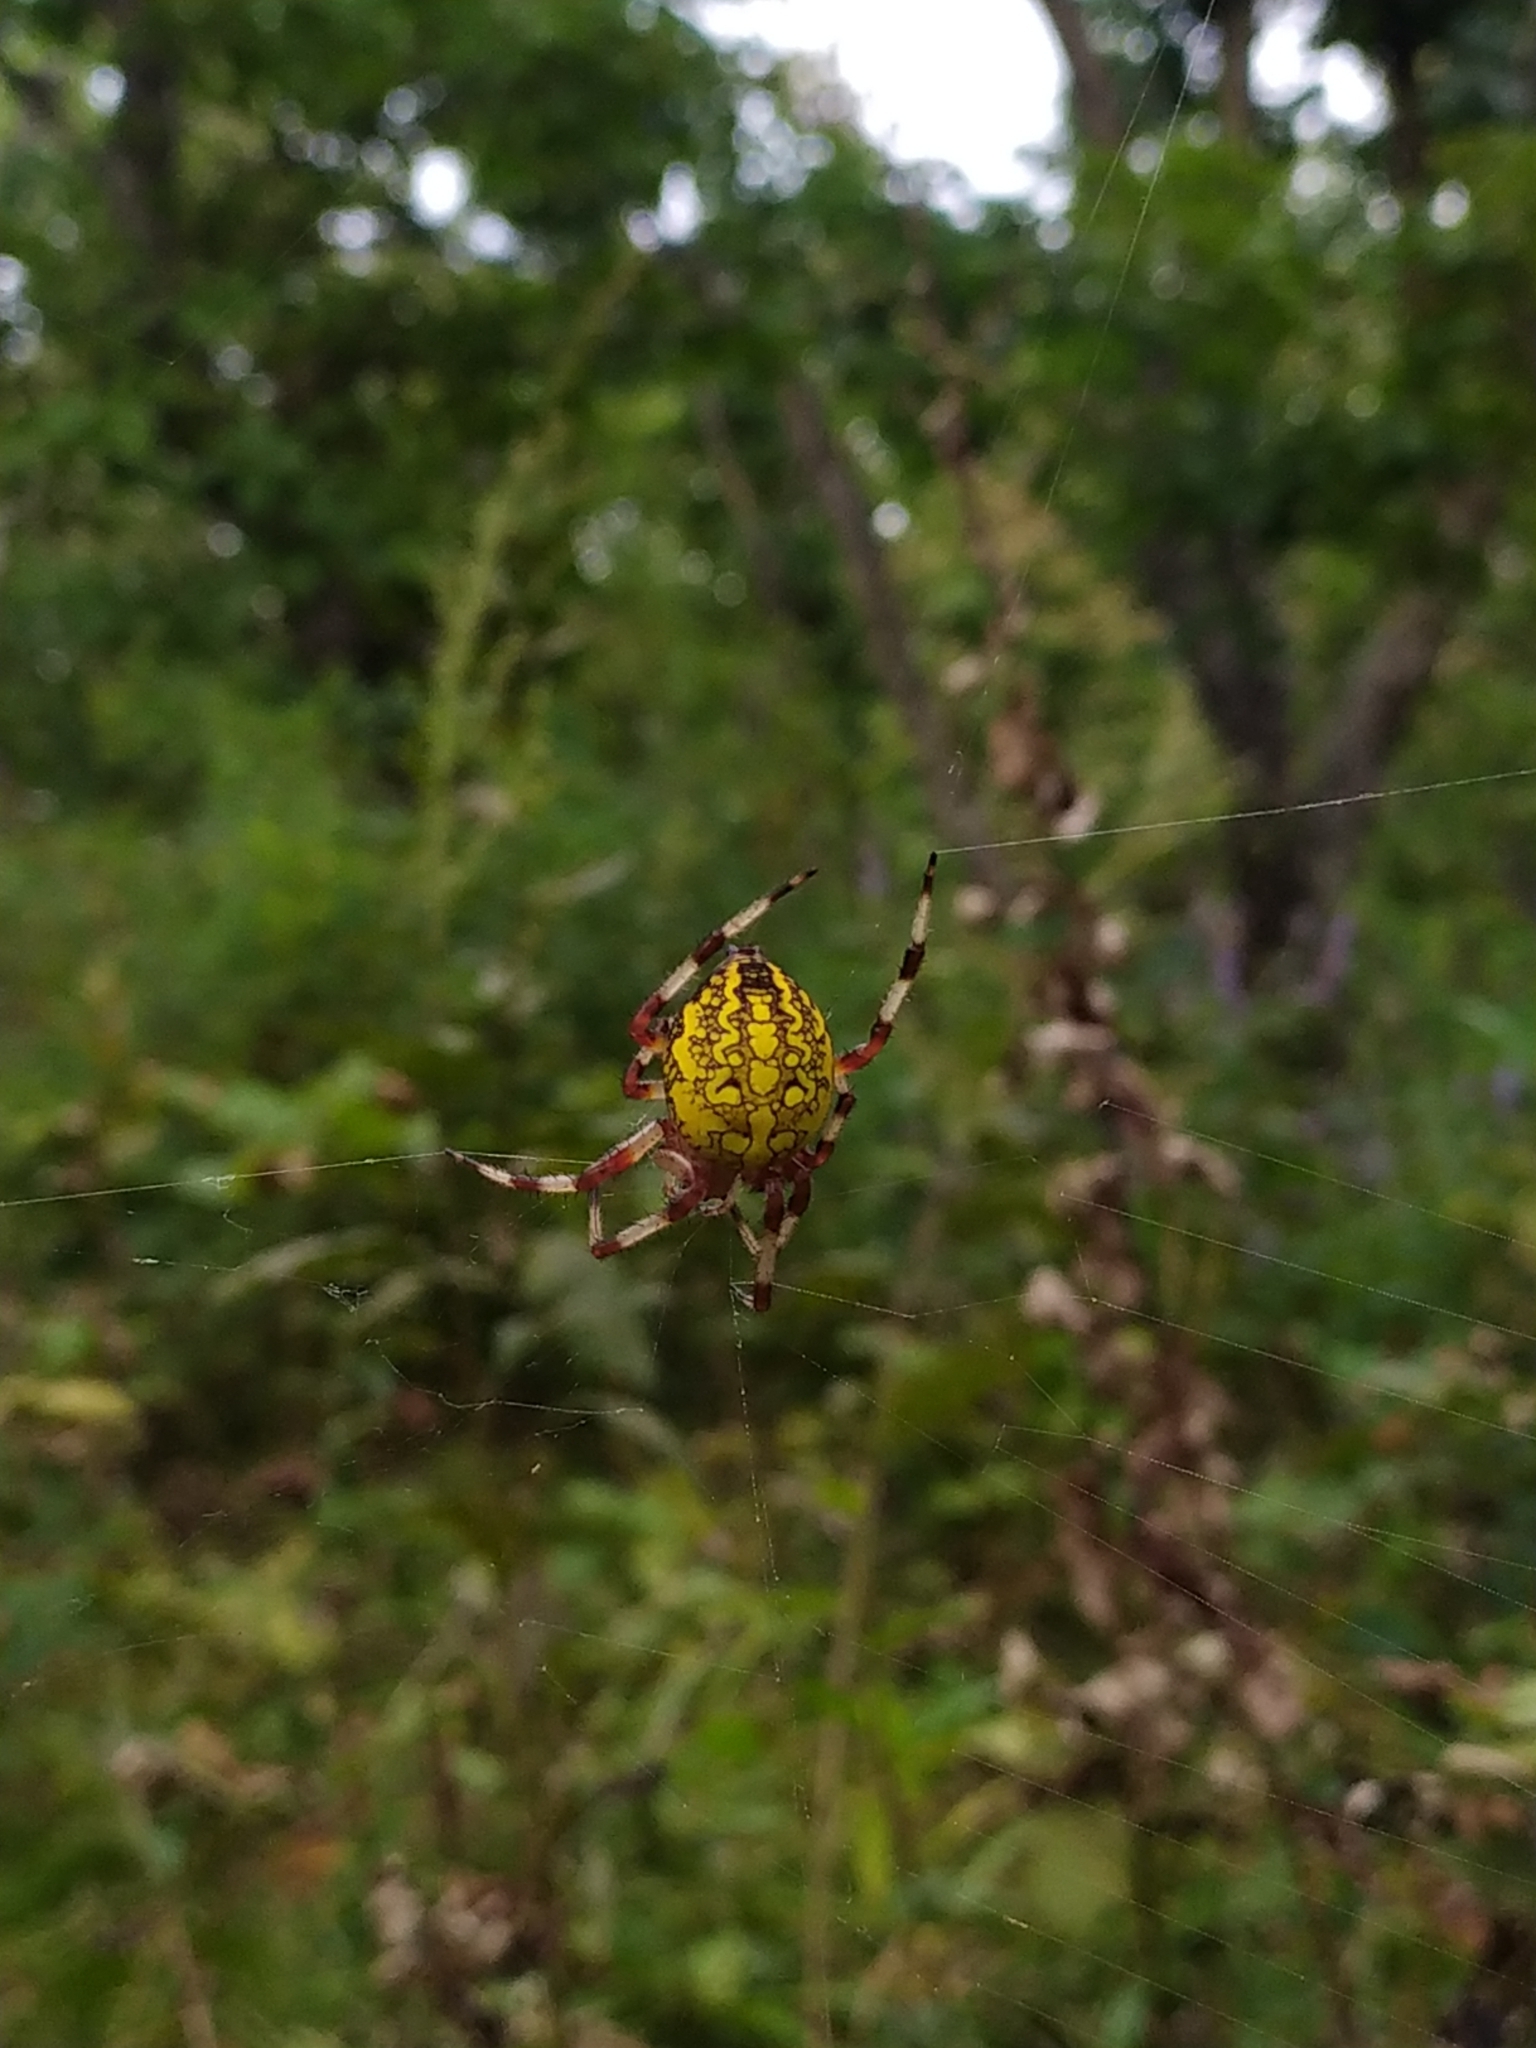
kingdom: Animalia
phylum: Arthropoda
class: Arachnida
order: Araneae
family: Araneidae
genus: Araneus
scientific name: Araneus marmoreus
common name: Marbled orbweaver
